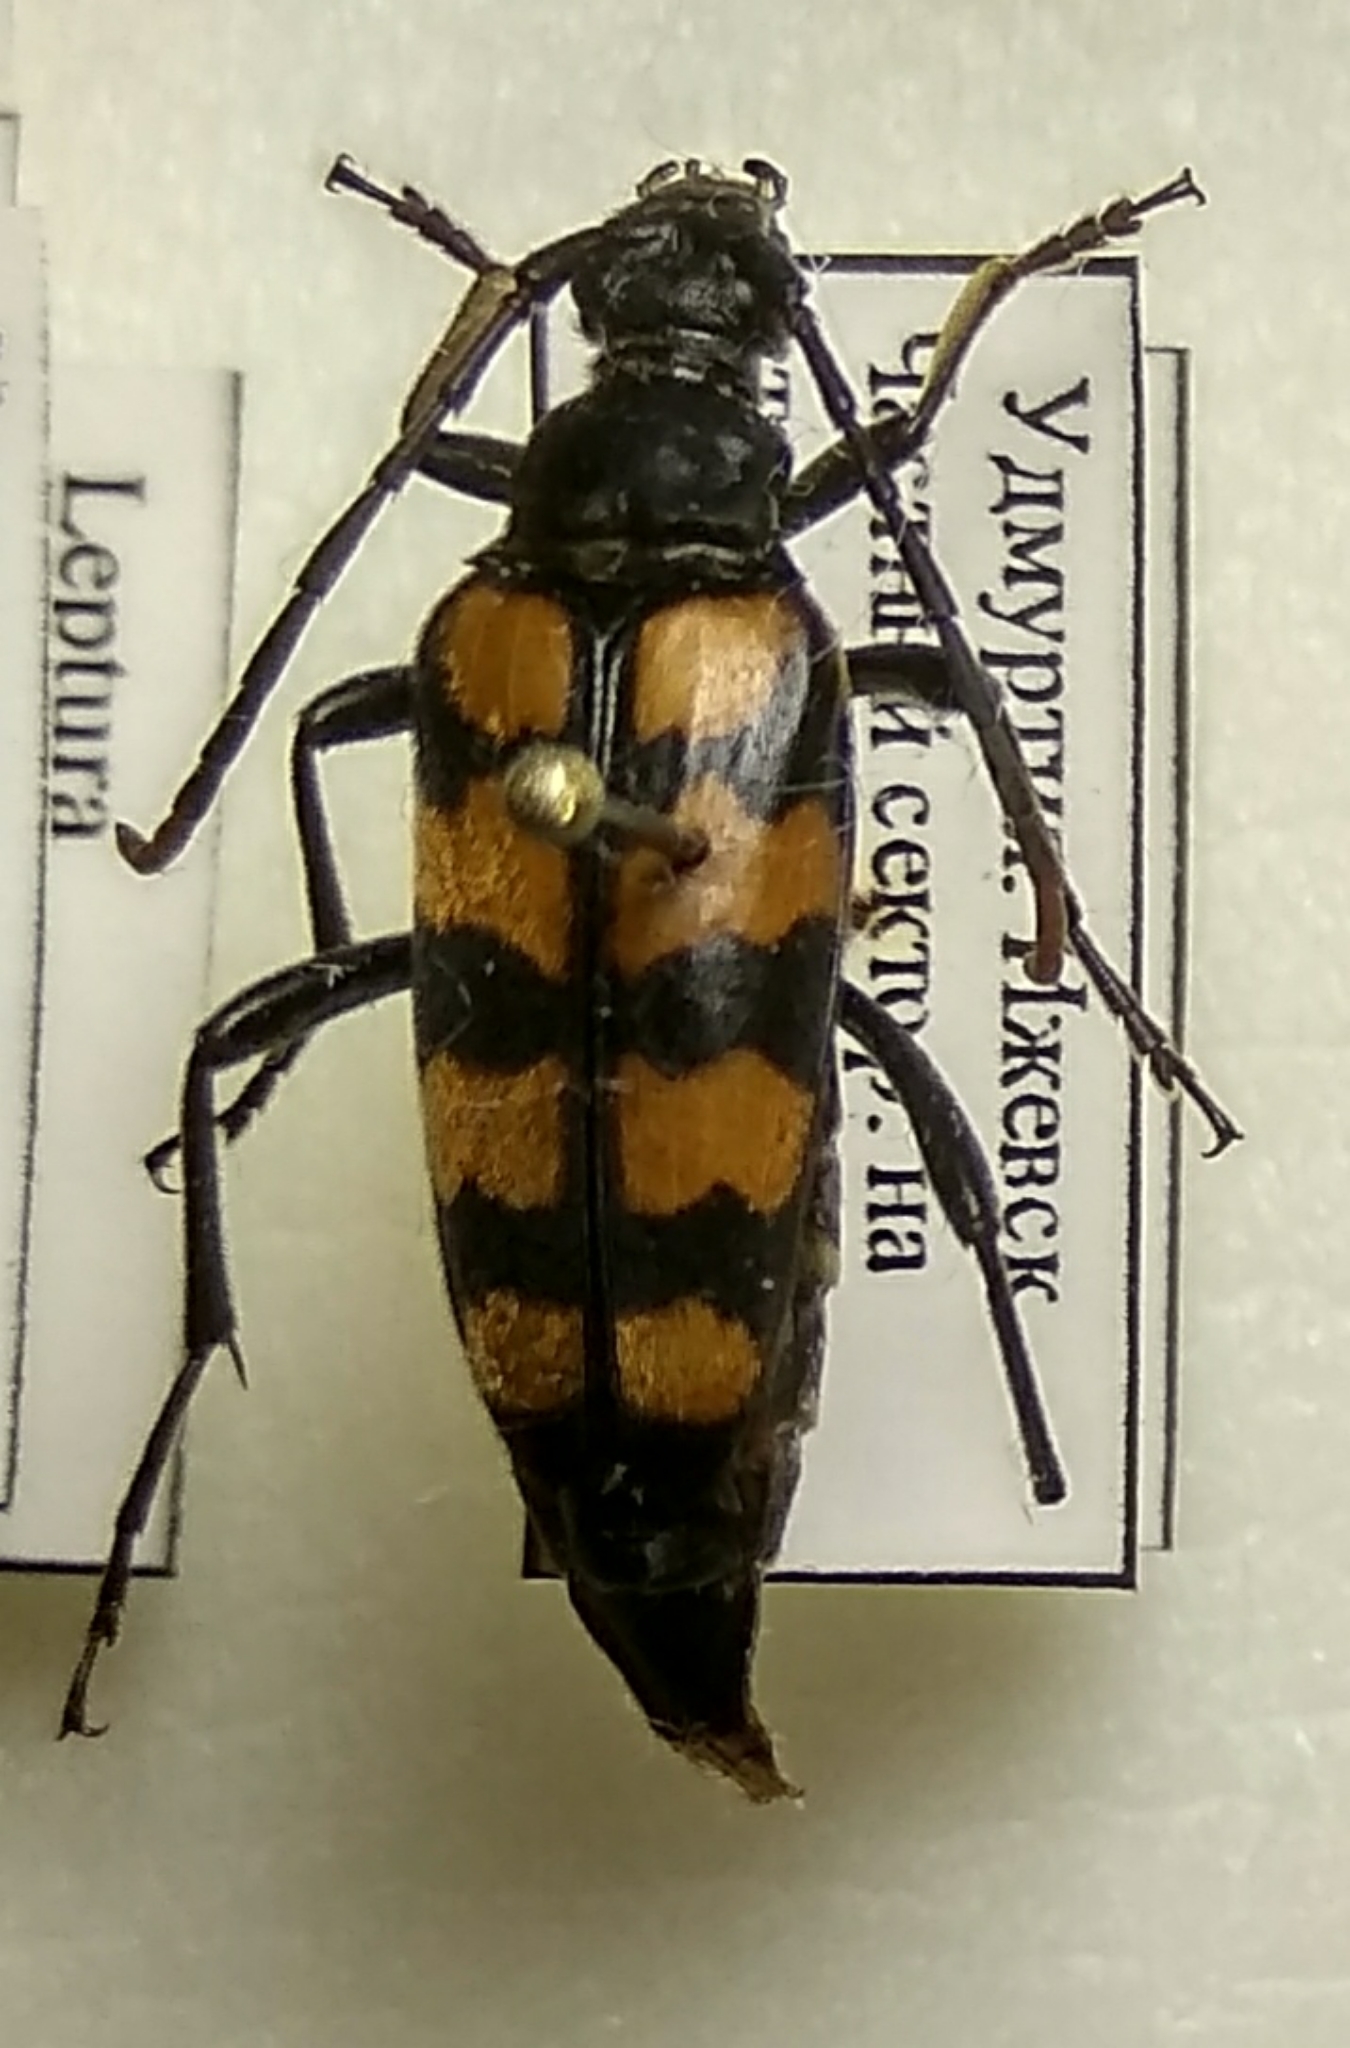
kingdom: Animalia
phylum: Arthropoda
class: Insecta
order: Coleoptera
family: Cerambycidae
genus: Leptura
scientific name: Leptura quadrifasciata
